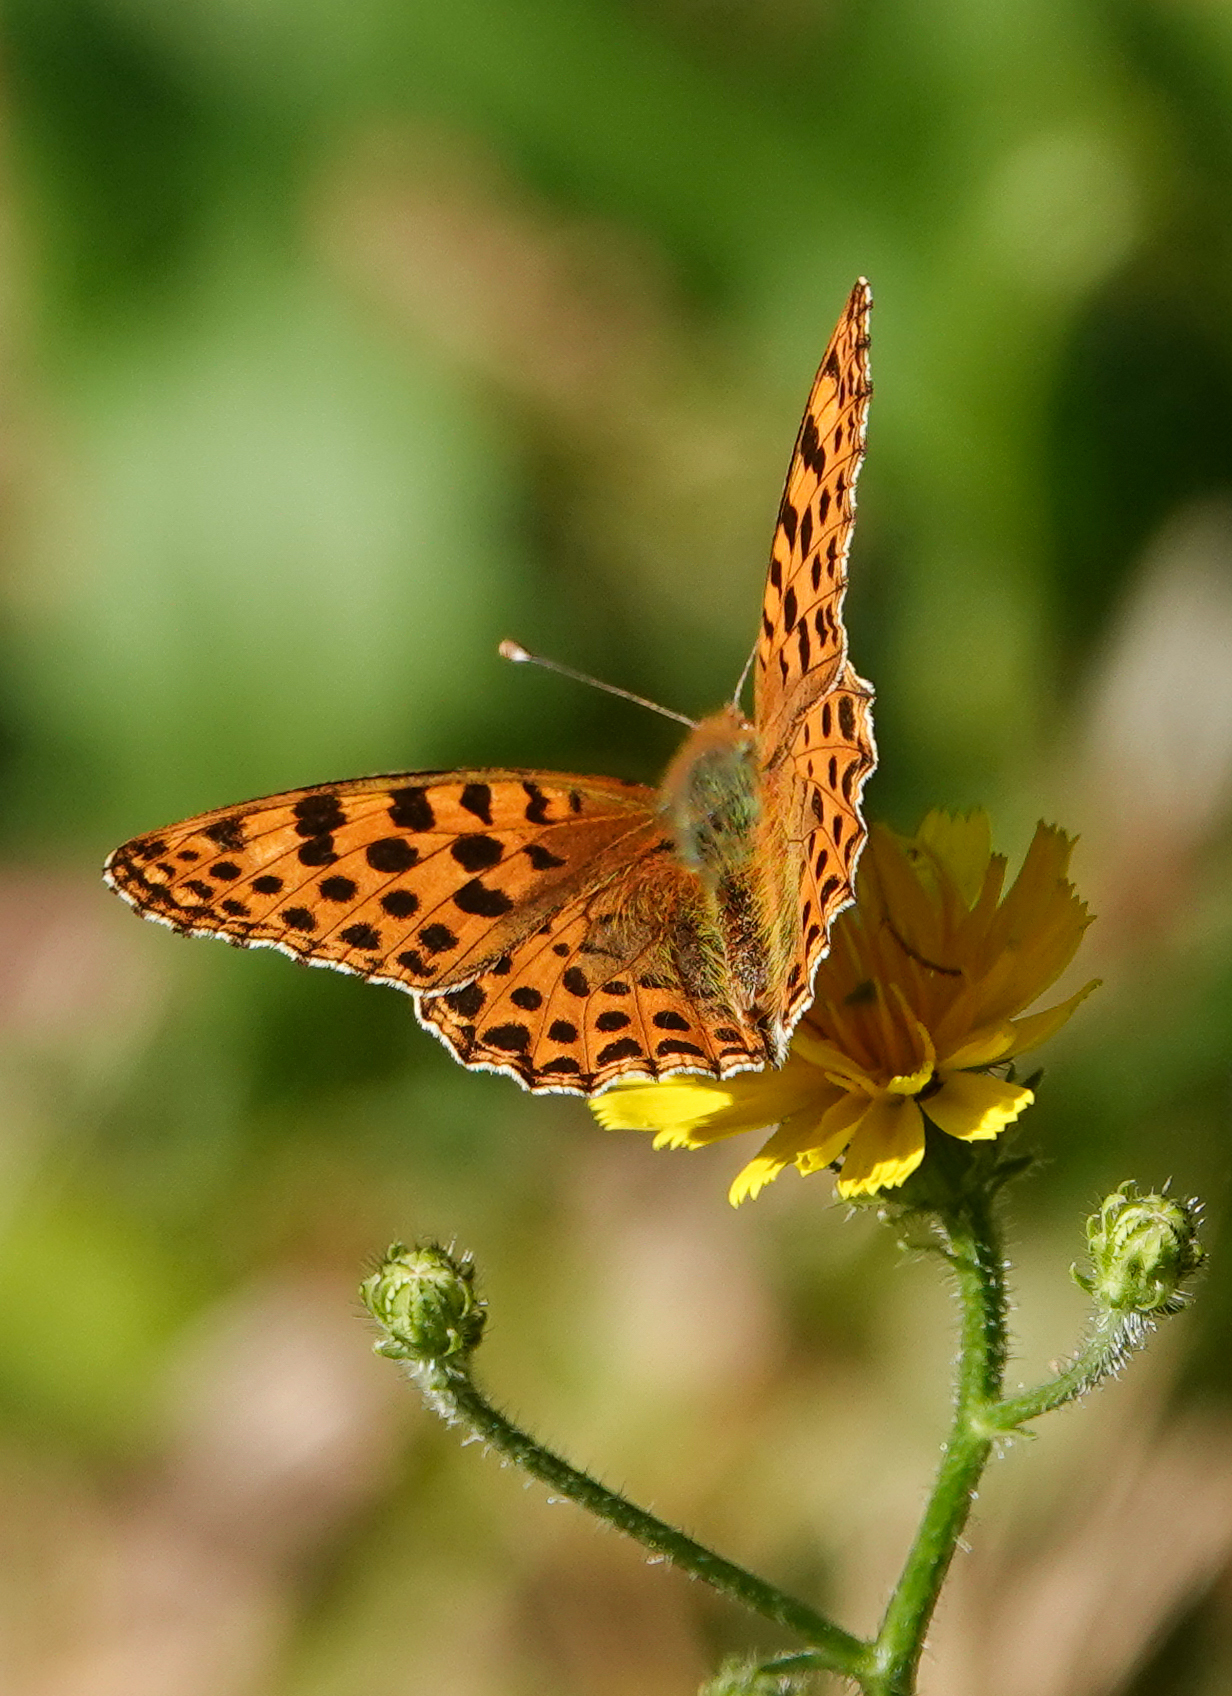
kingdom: Animalia
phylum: Arthropoda
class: Insecta
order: Lepidoptera
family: Nymphalidae
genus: Issoria
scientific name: Issoria lathonia
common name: Queen of spain fritillary
